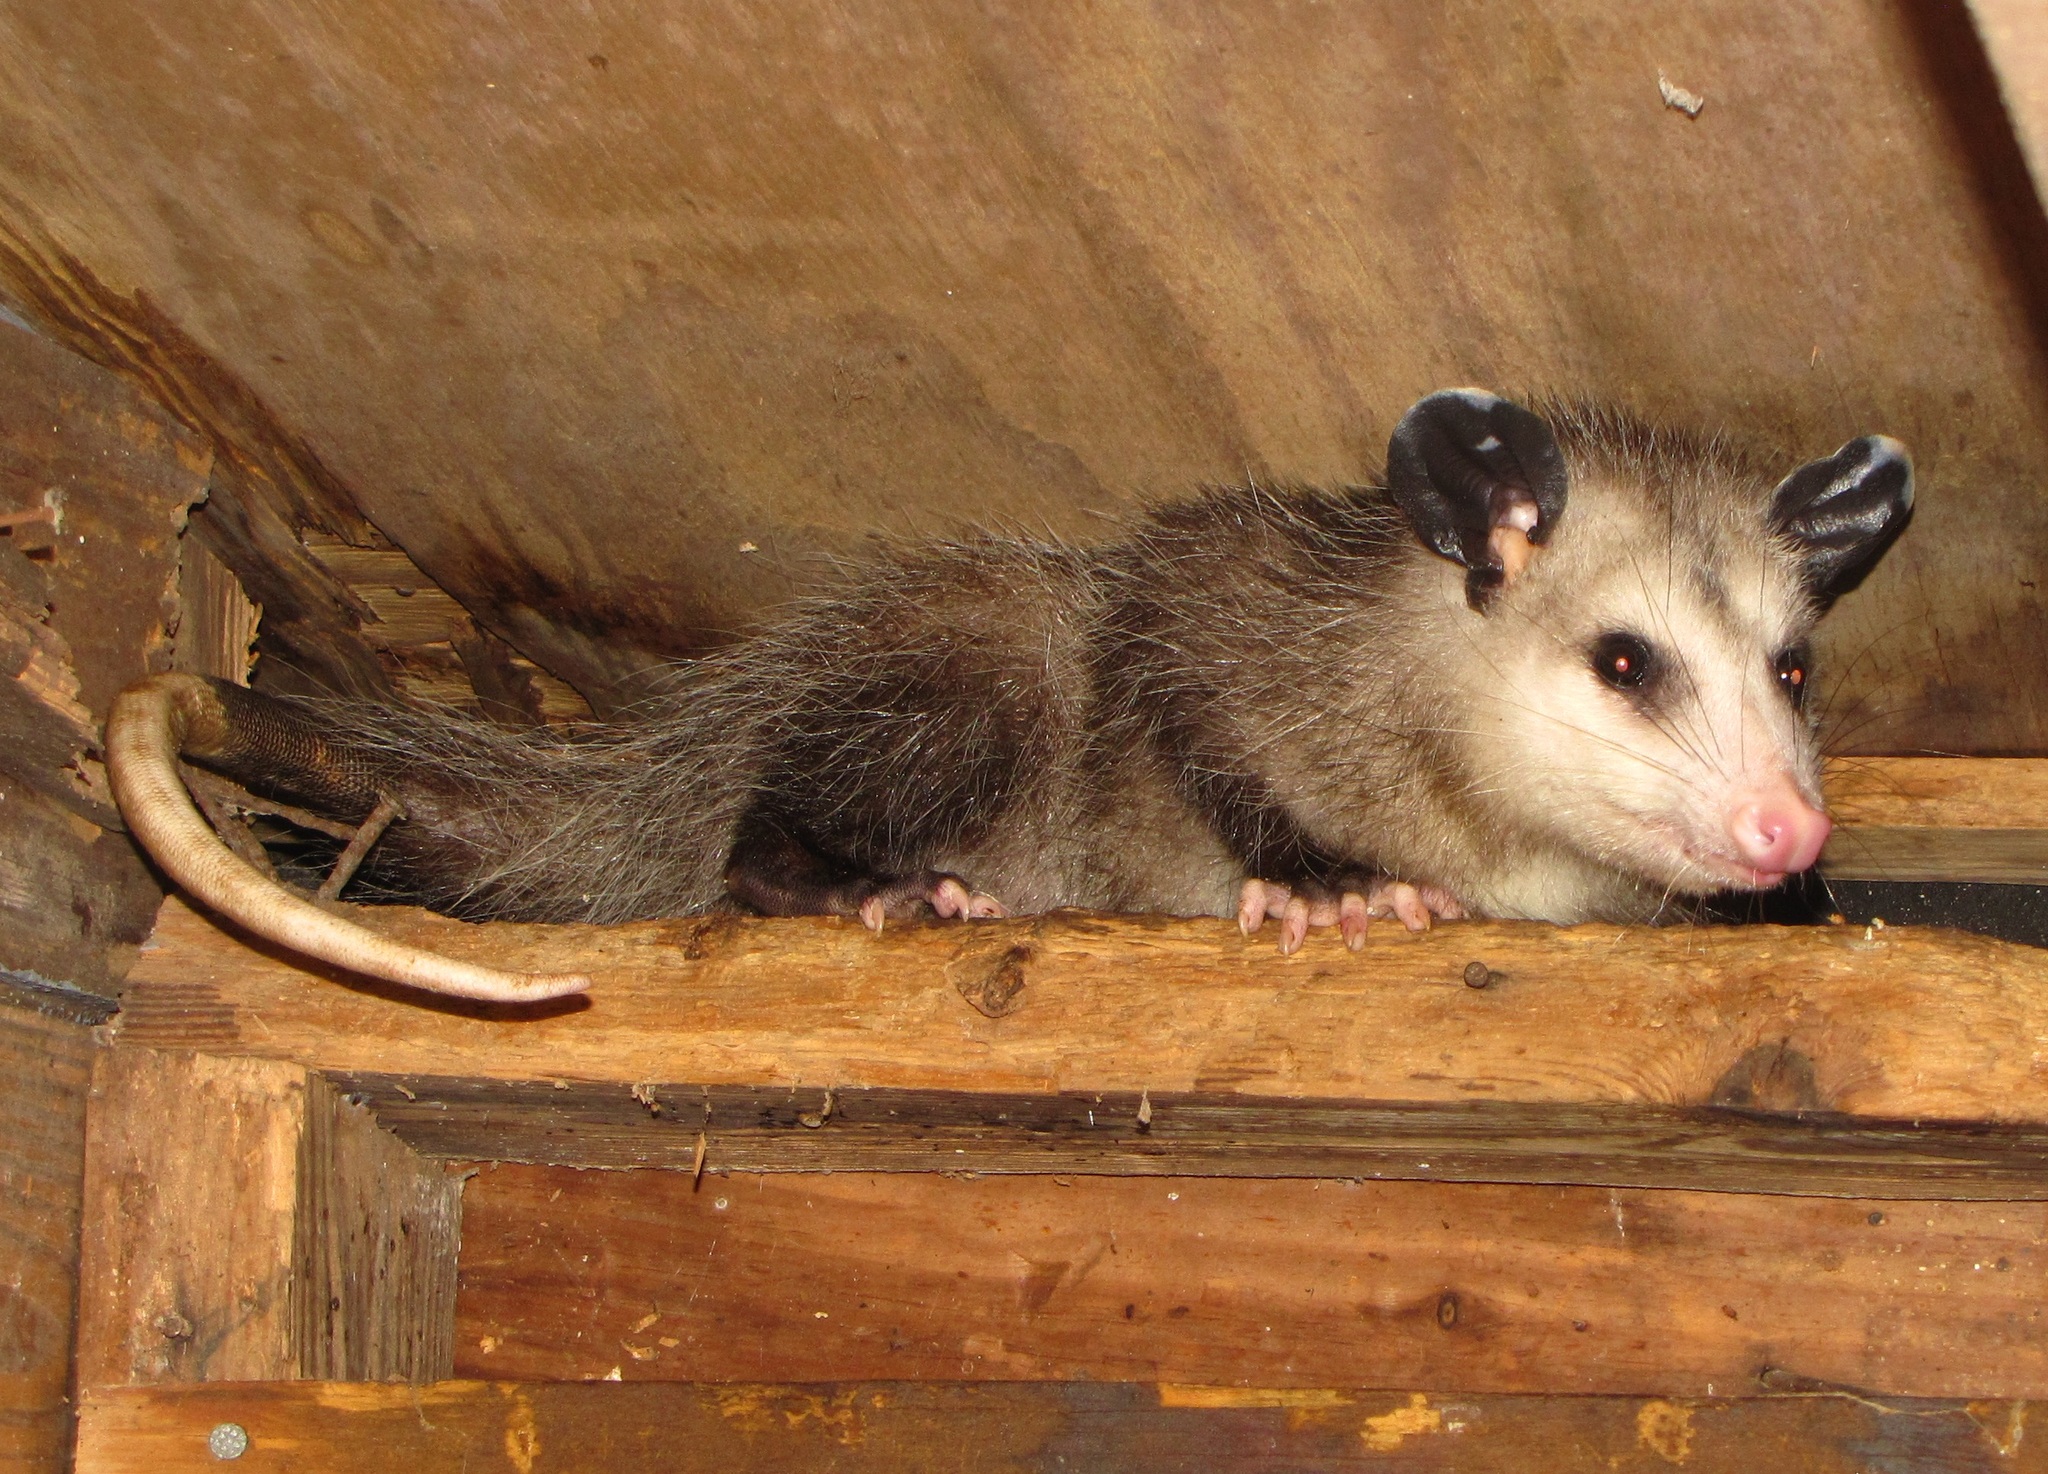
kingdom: Animalia
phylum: Chordata
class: Mammalia
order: Didelphimorphia
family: Didelphidae
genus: Didelphis
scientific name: Didelphis virginiana
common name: Virginia opossum
